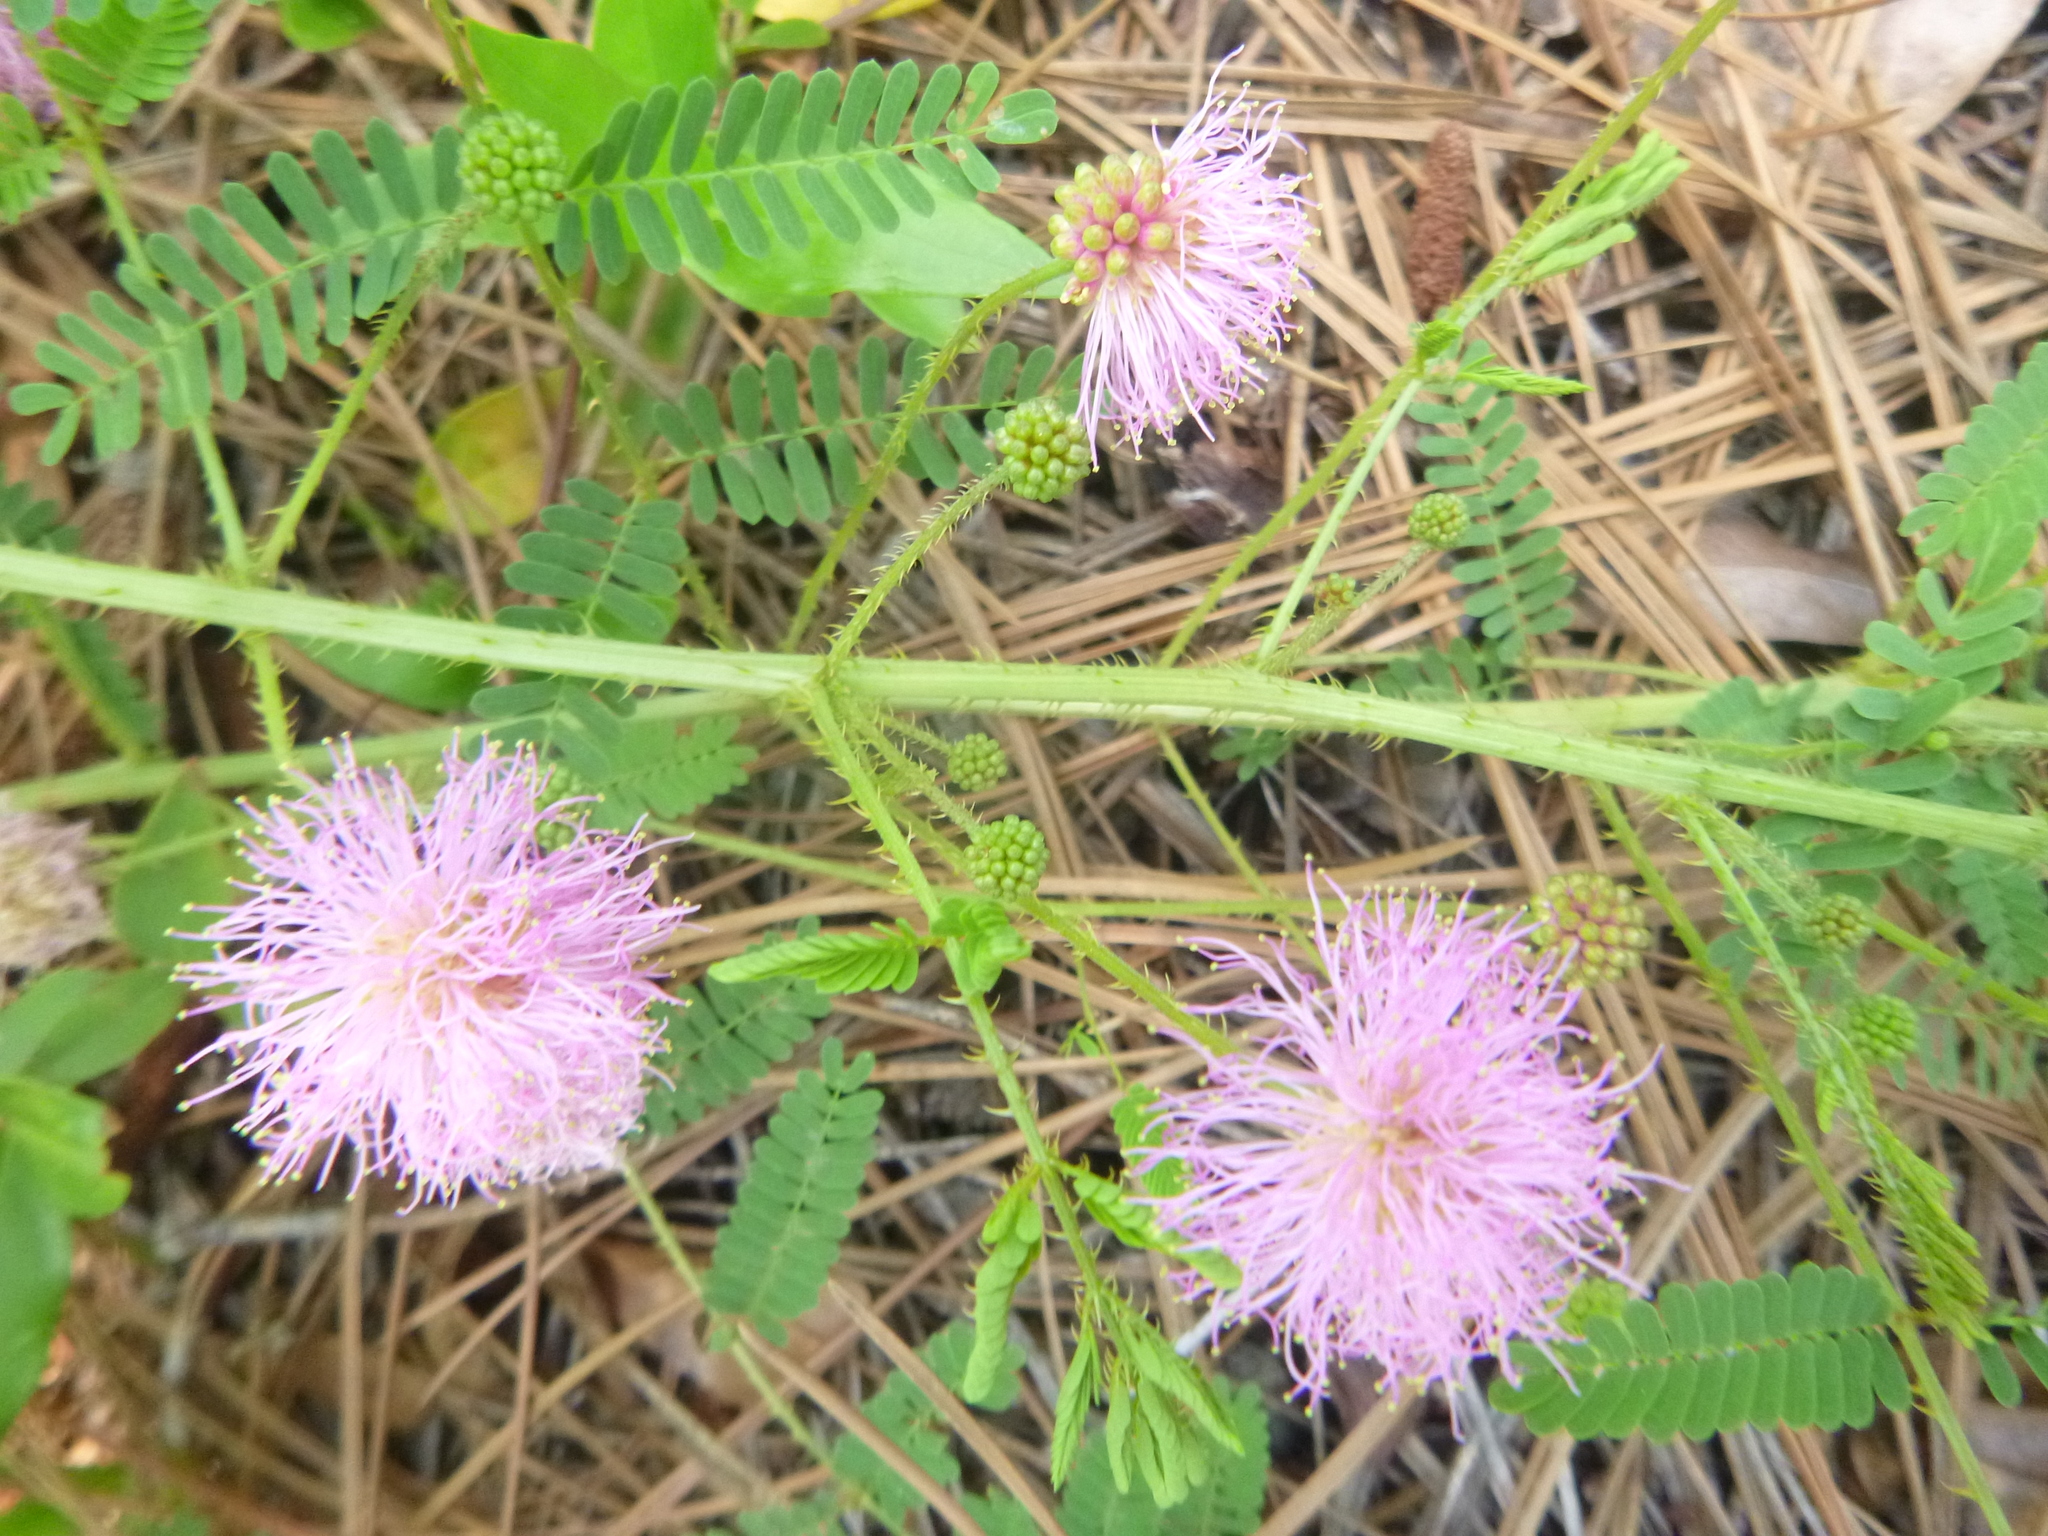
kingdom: Plantae
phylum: Tracheophyta
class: Magnoliopsida
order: Fabales
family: Fabaceae
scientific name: Fabaceae
